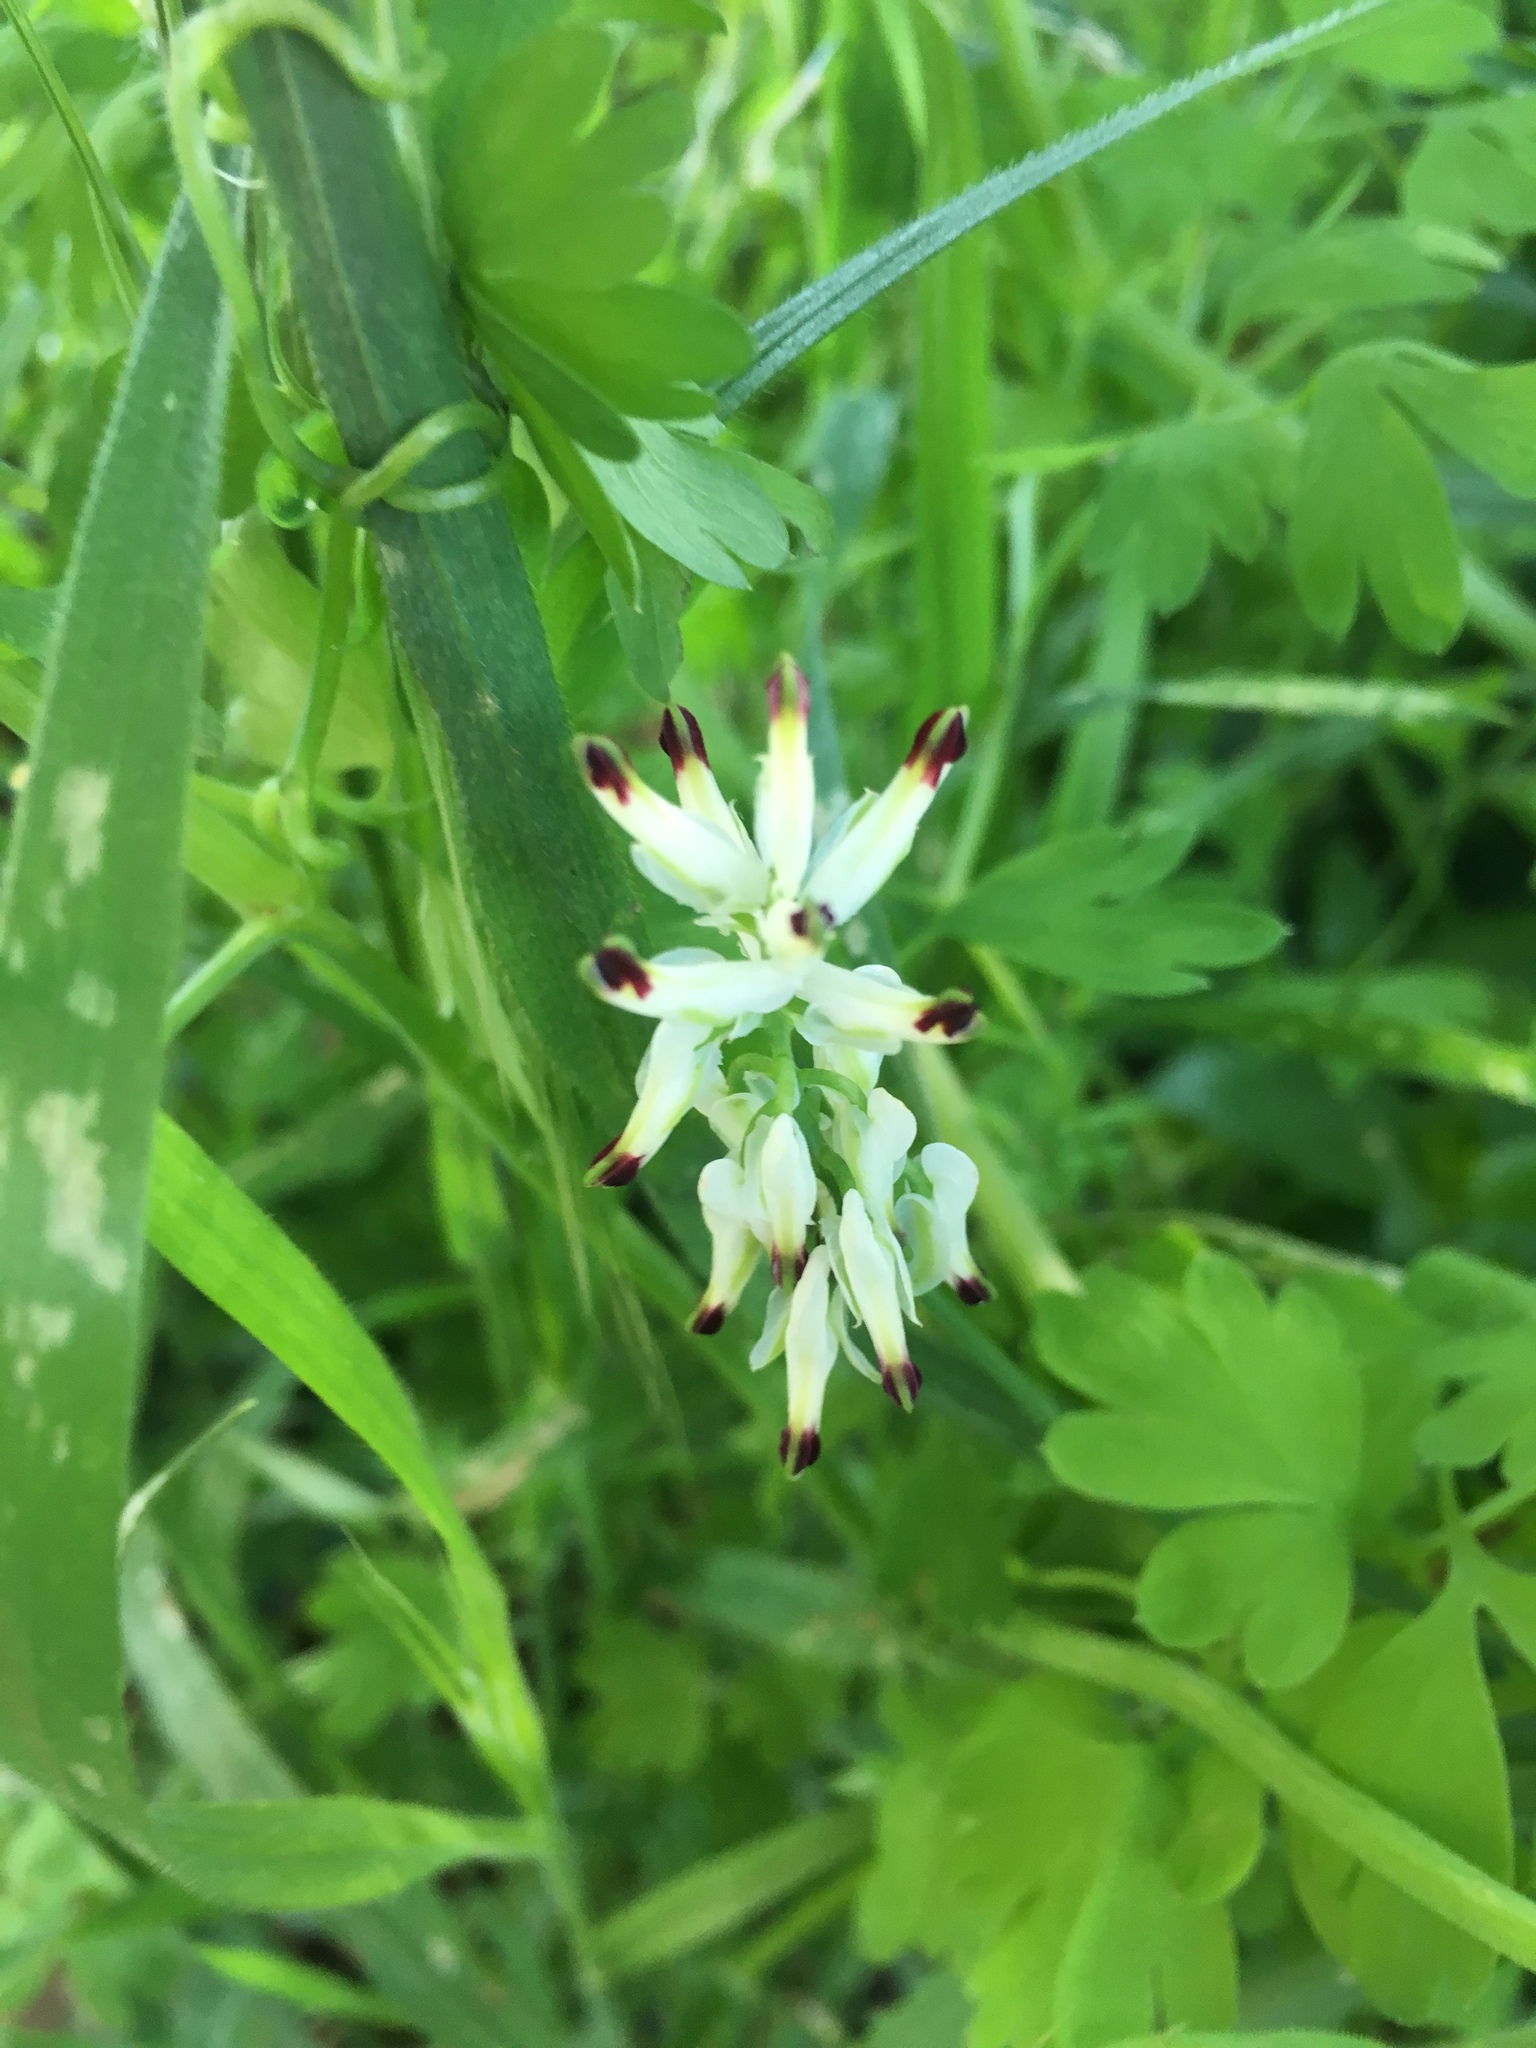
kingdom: Plantae
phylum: Tracheophyta
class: Magnoliopsida
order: Ranunculales
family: Papaveraceae
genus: Fumaria
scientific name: Fumaria capreolata
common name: White ramping-fumitory
